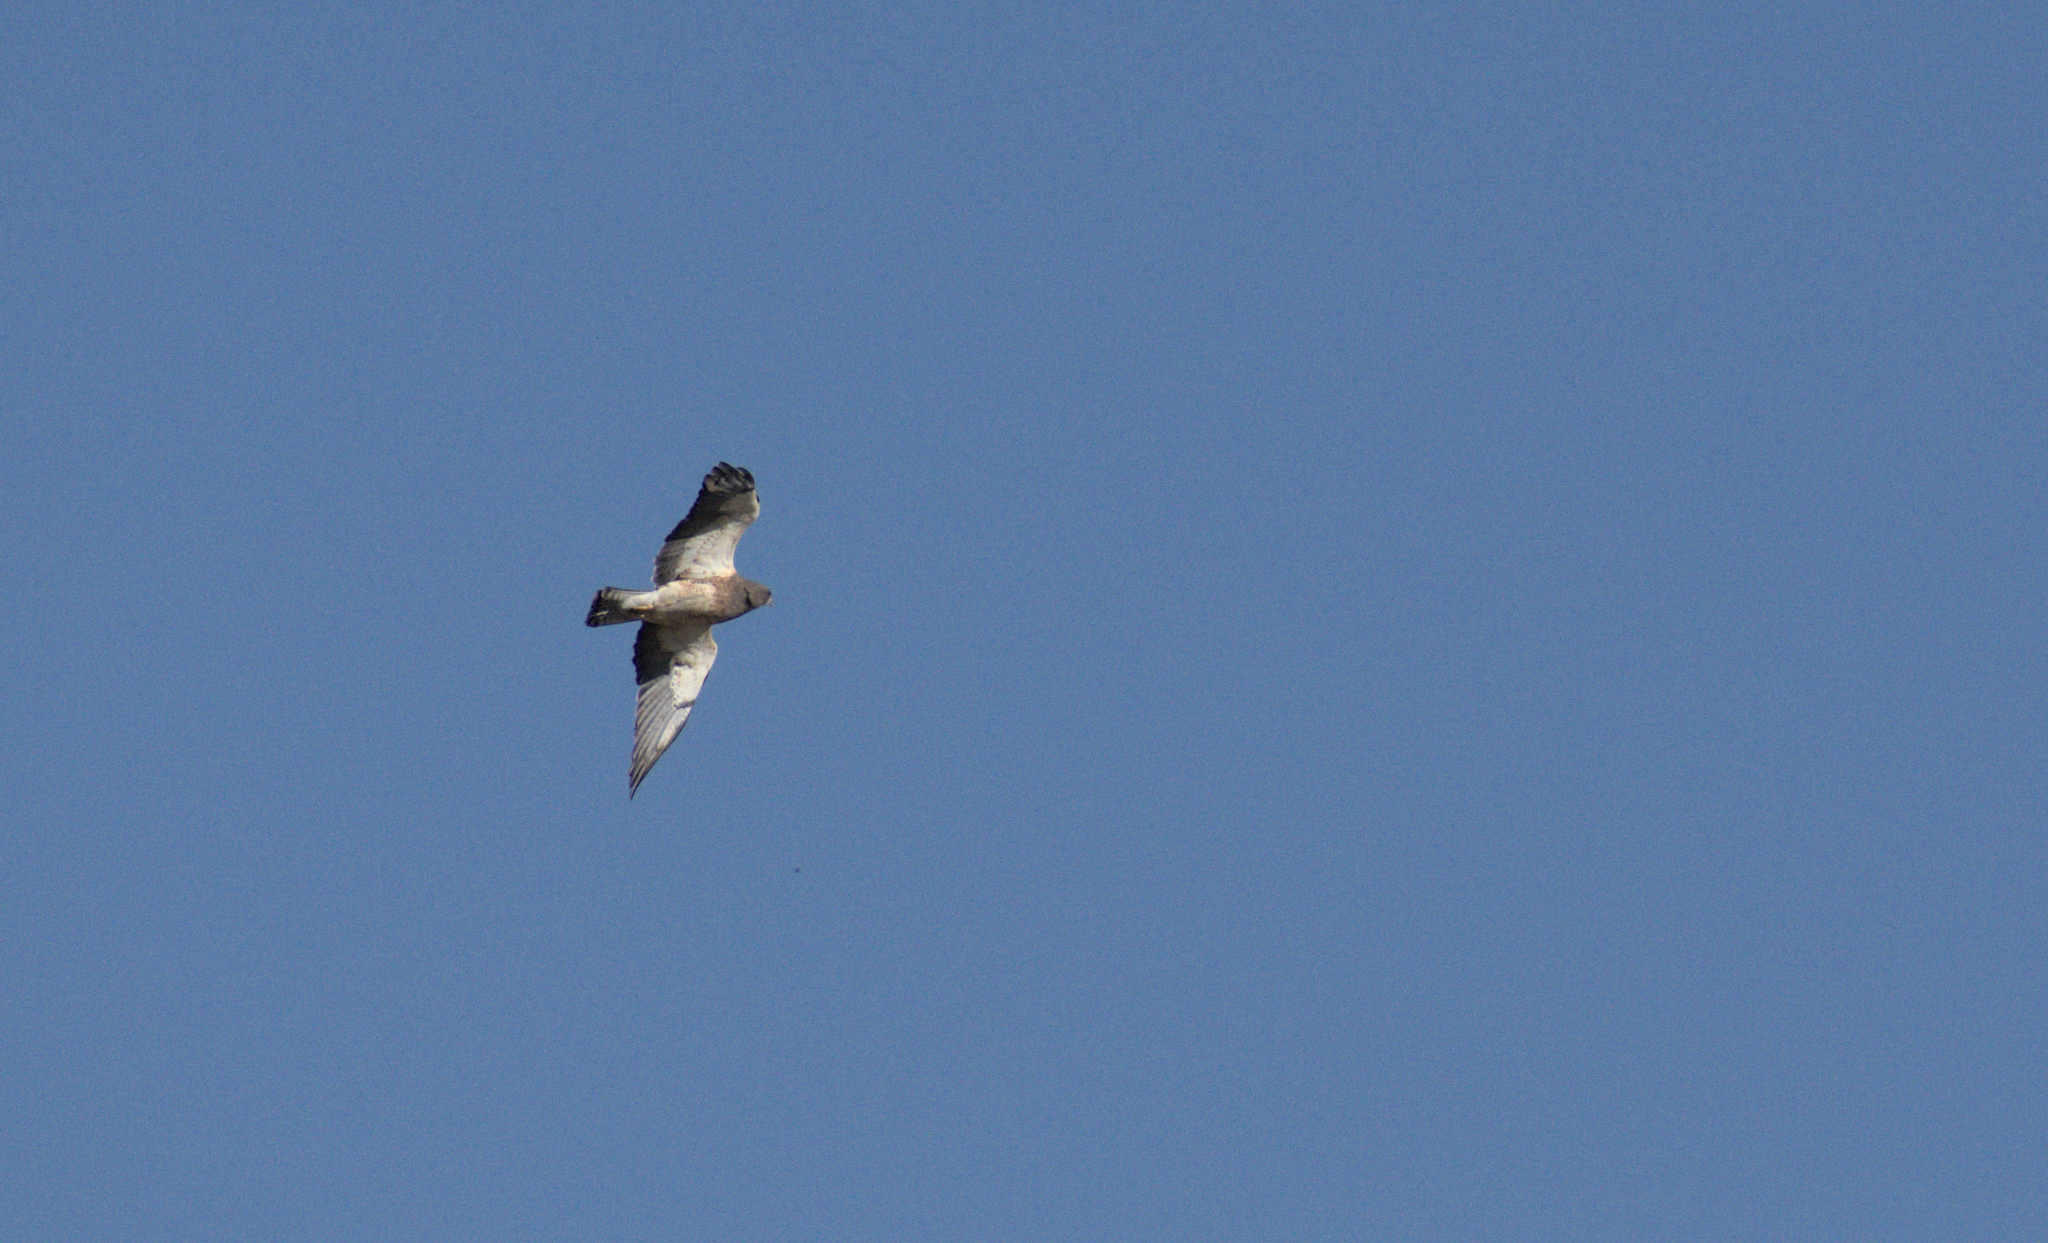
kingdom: Animalia
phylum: Chordata
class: Aves
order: Accipitriformes
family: Accipitridae
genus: Buteo
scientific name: Buteo swainsoni
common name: Swainson's hawk
